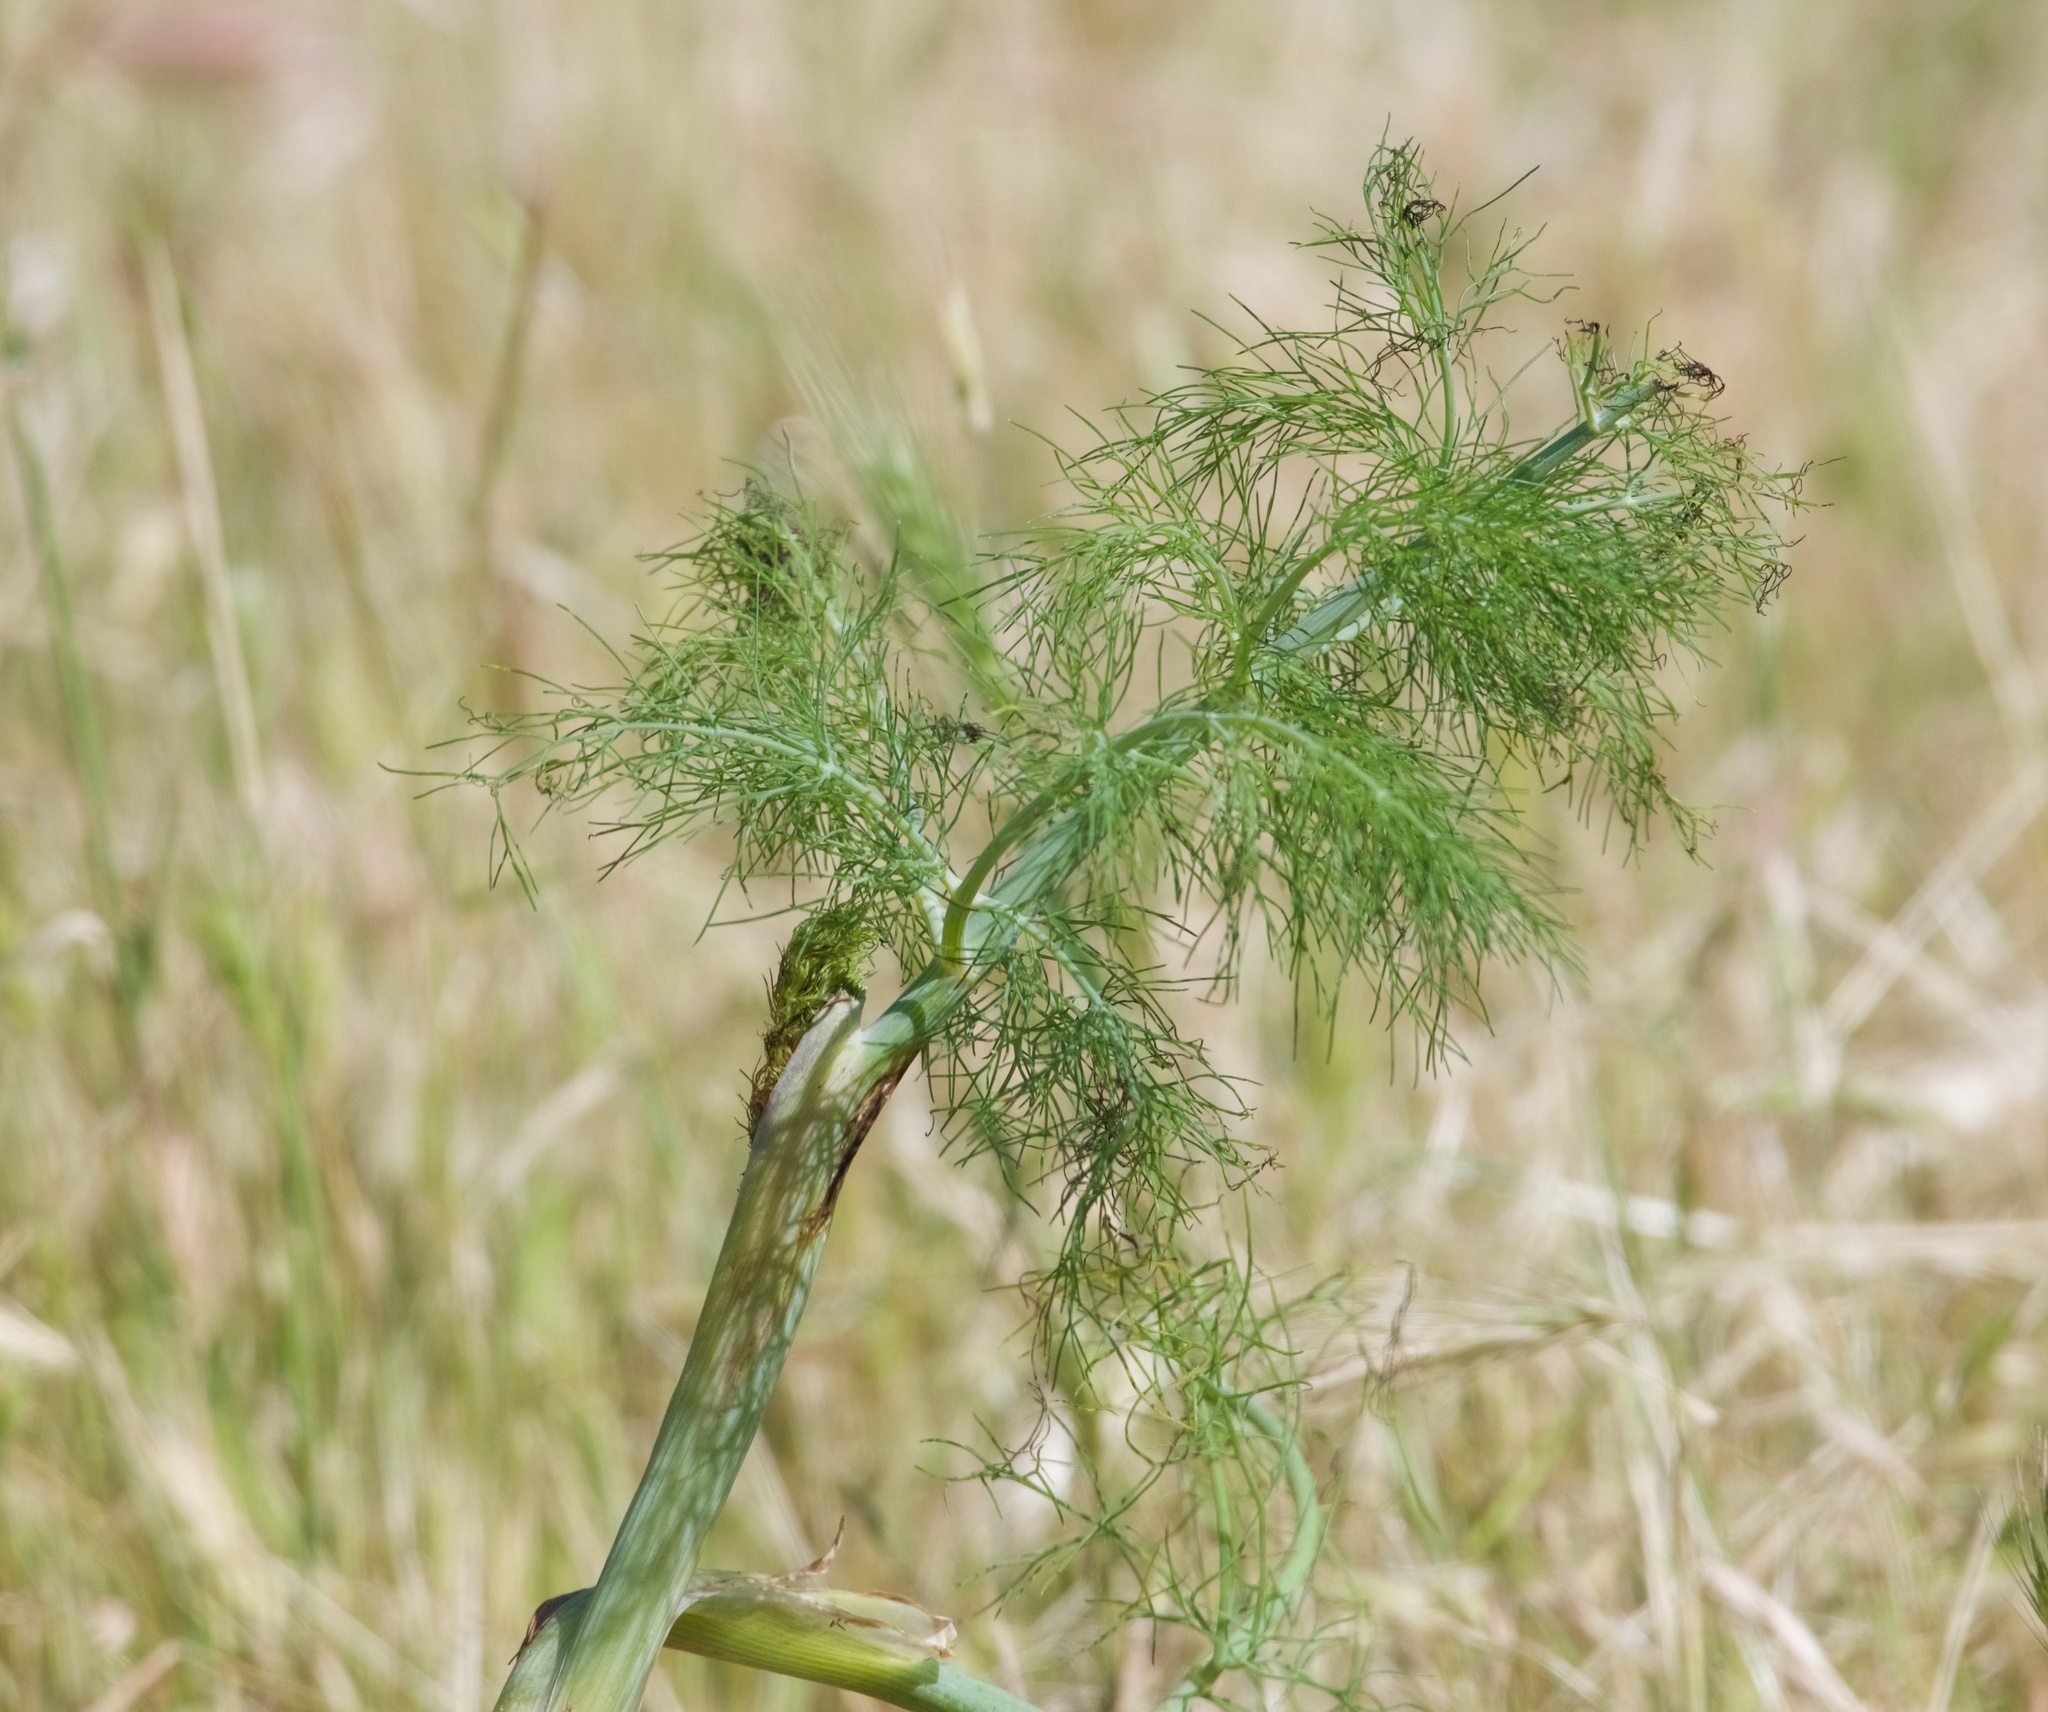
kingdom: Plantae
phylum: Tracheophyta
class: Magnoliopsida
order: Apiales
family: Apiaceae
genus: Foeniculum
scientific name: Foeniculum vulgare
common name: Fennel
